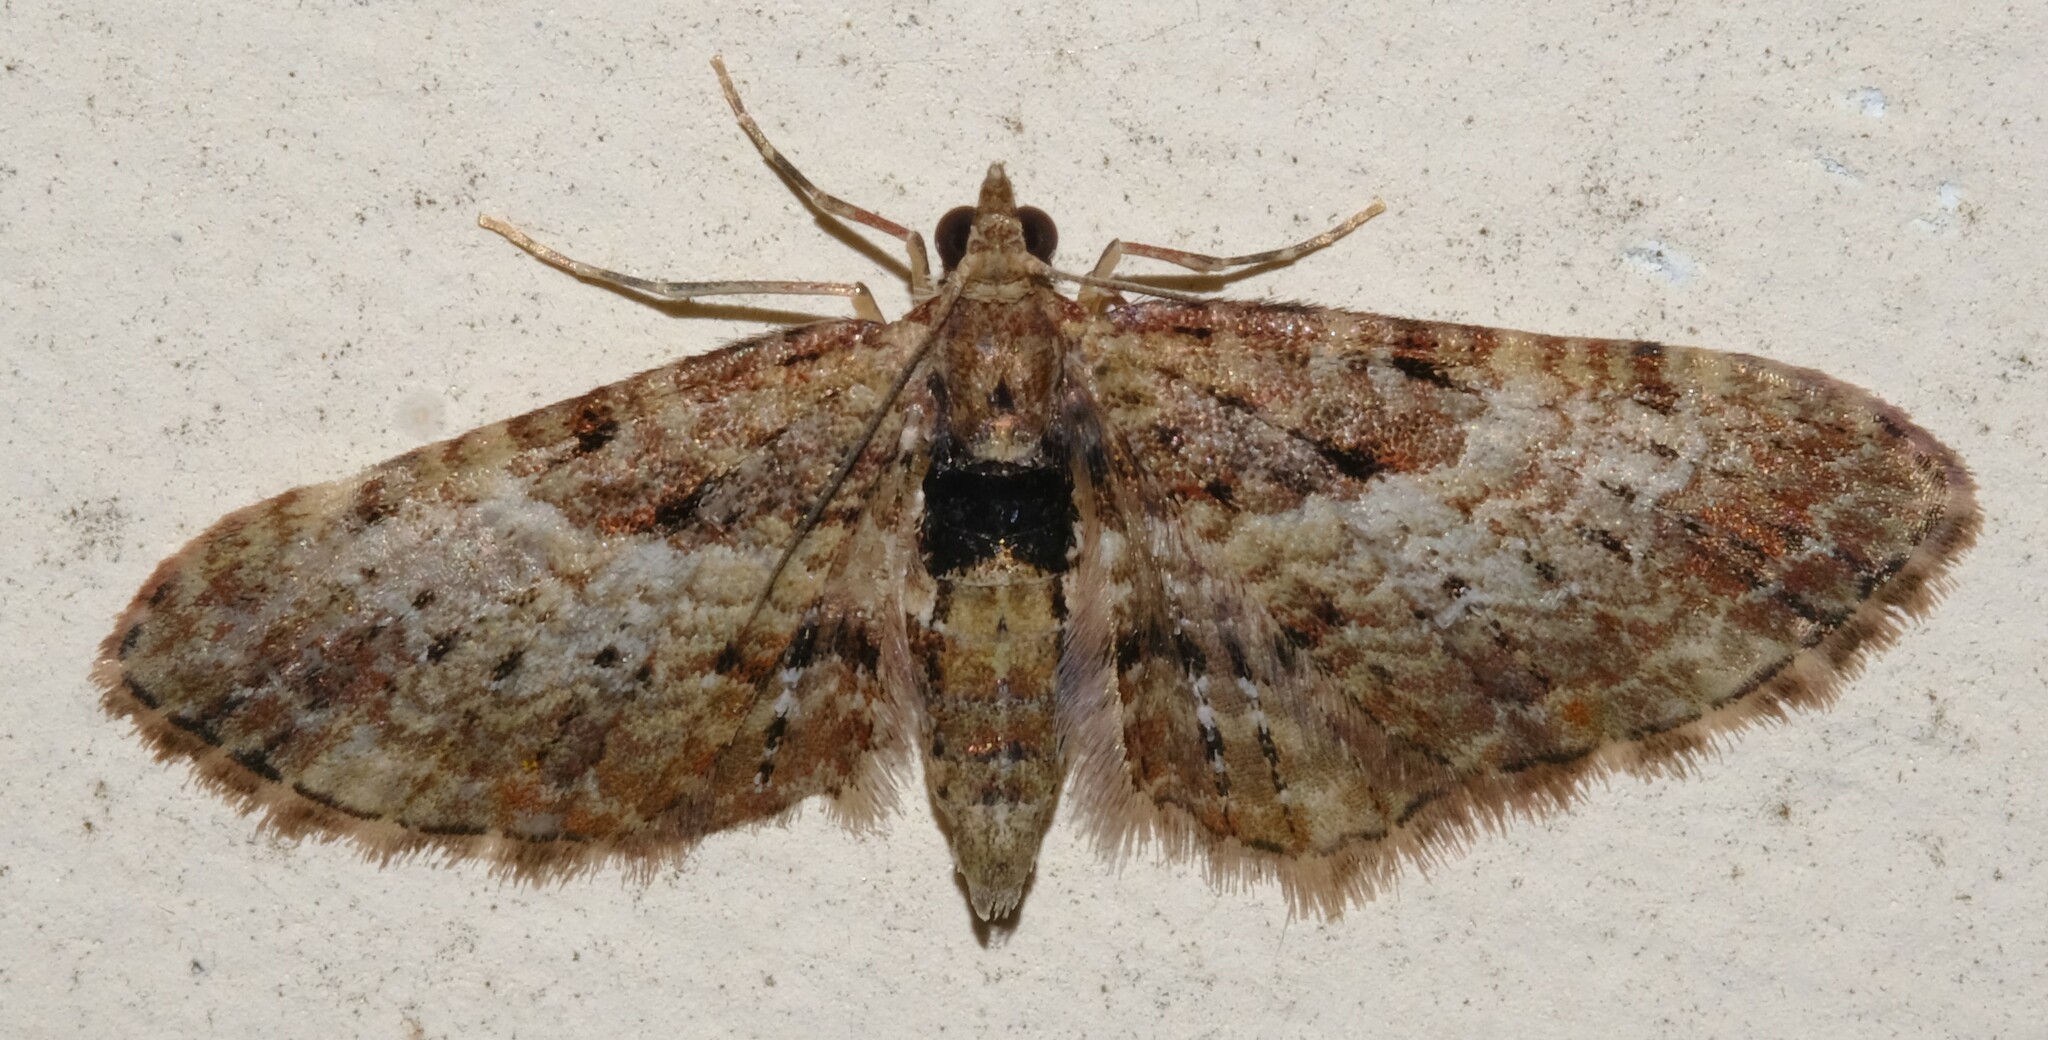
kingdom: Animalia
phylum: Arthropoda
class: Insecta
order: Lepidoptera
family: Geometridae
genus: Chloroclystis
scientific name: Chloroclystis approximata
